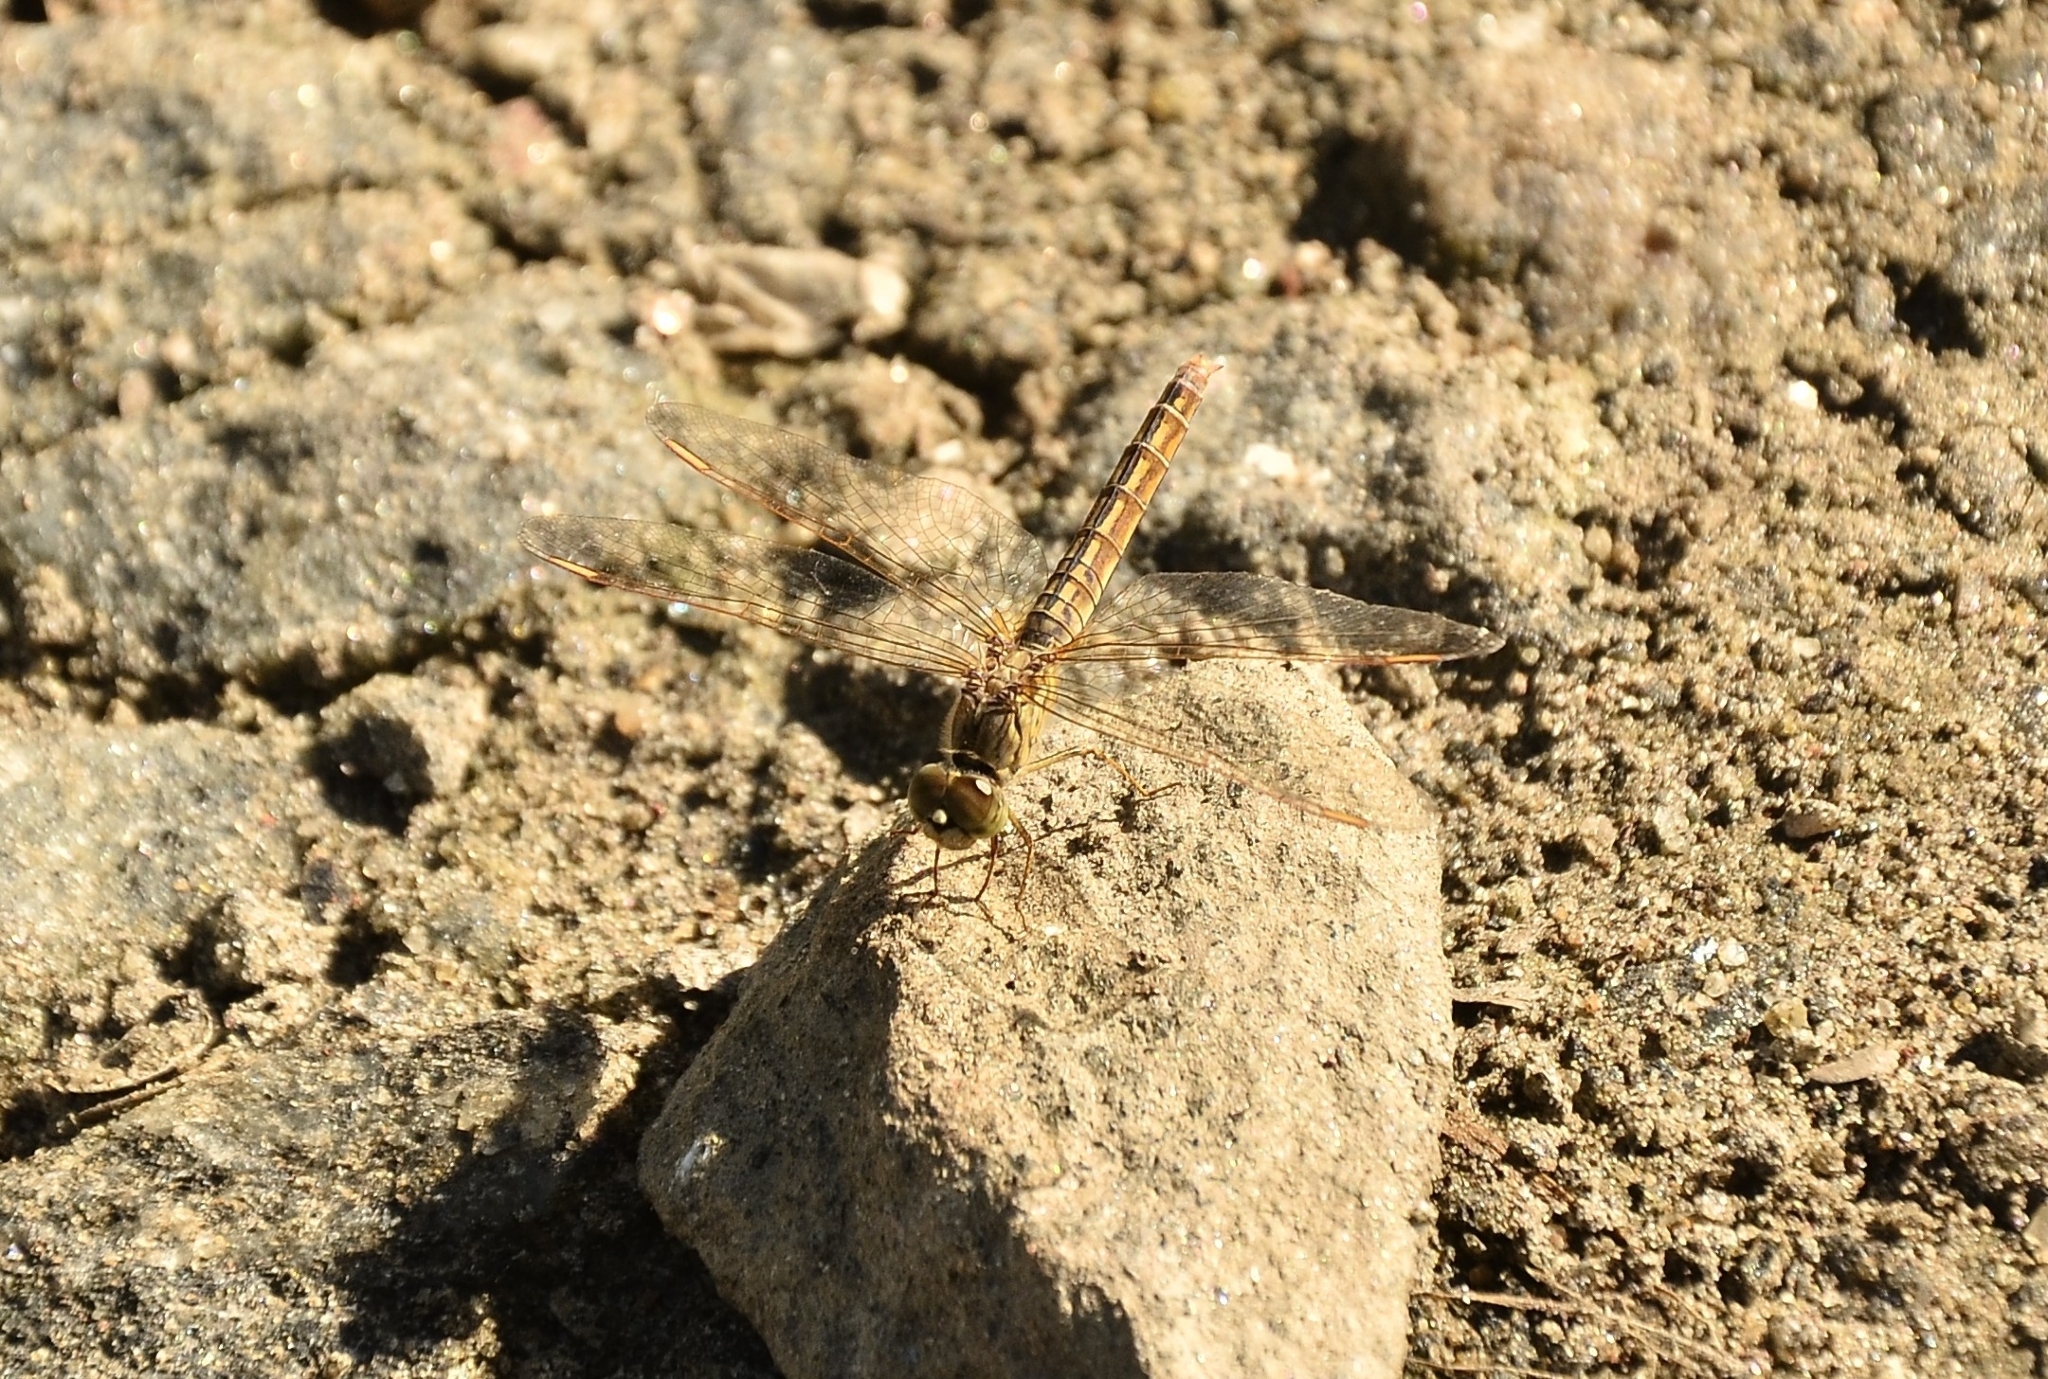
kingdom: Animalia
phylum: Arthropoda
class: Insecta
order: Odonata
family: Libellulidae
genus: Brachythemis
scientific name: Brachythemis contaminata
